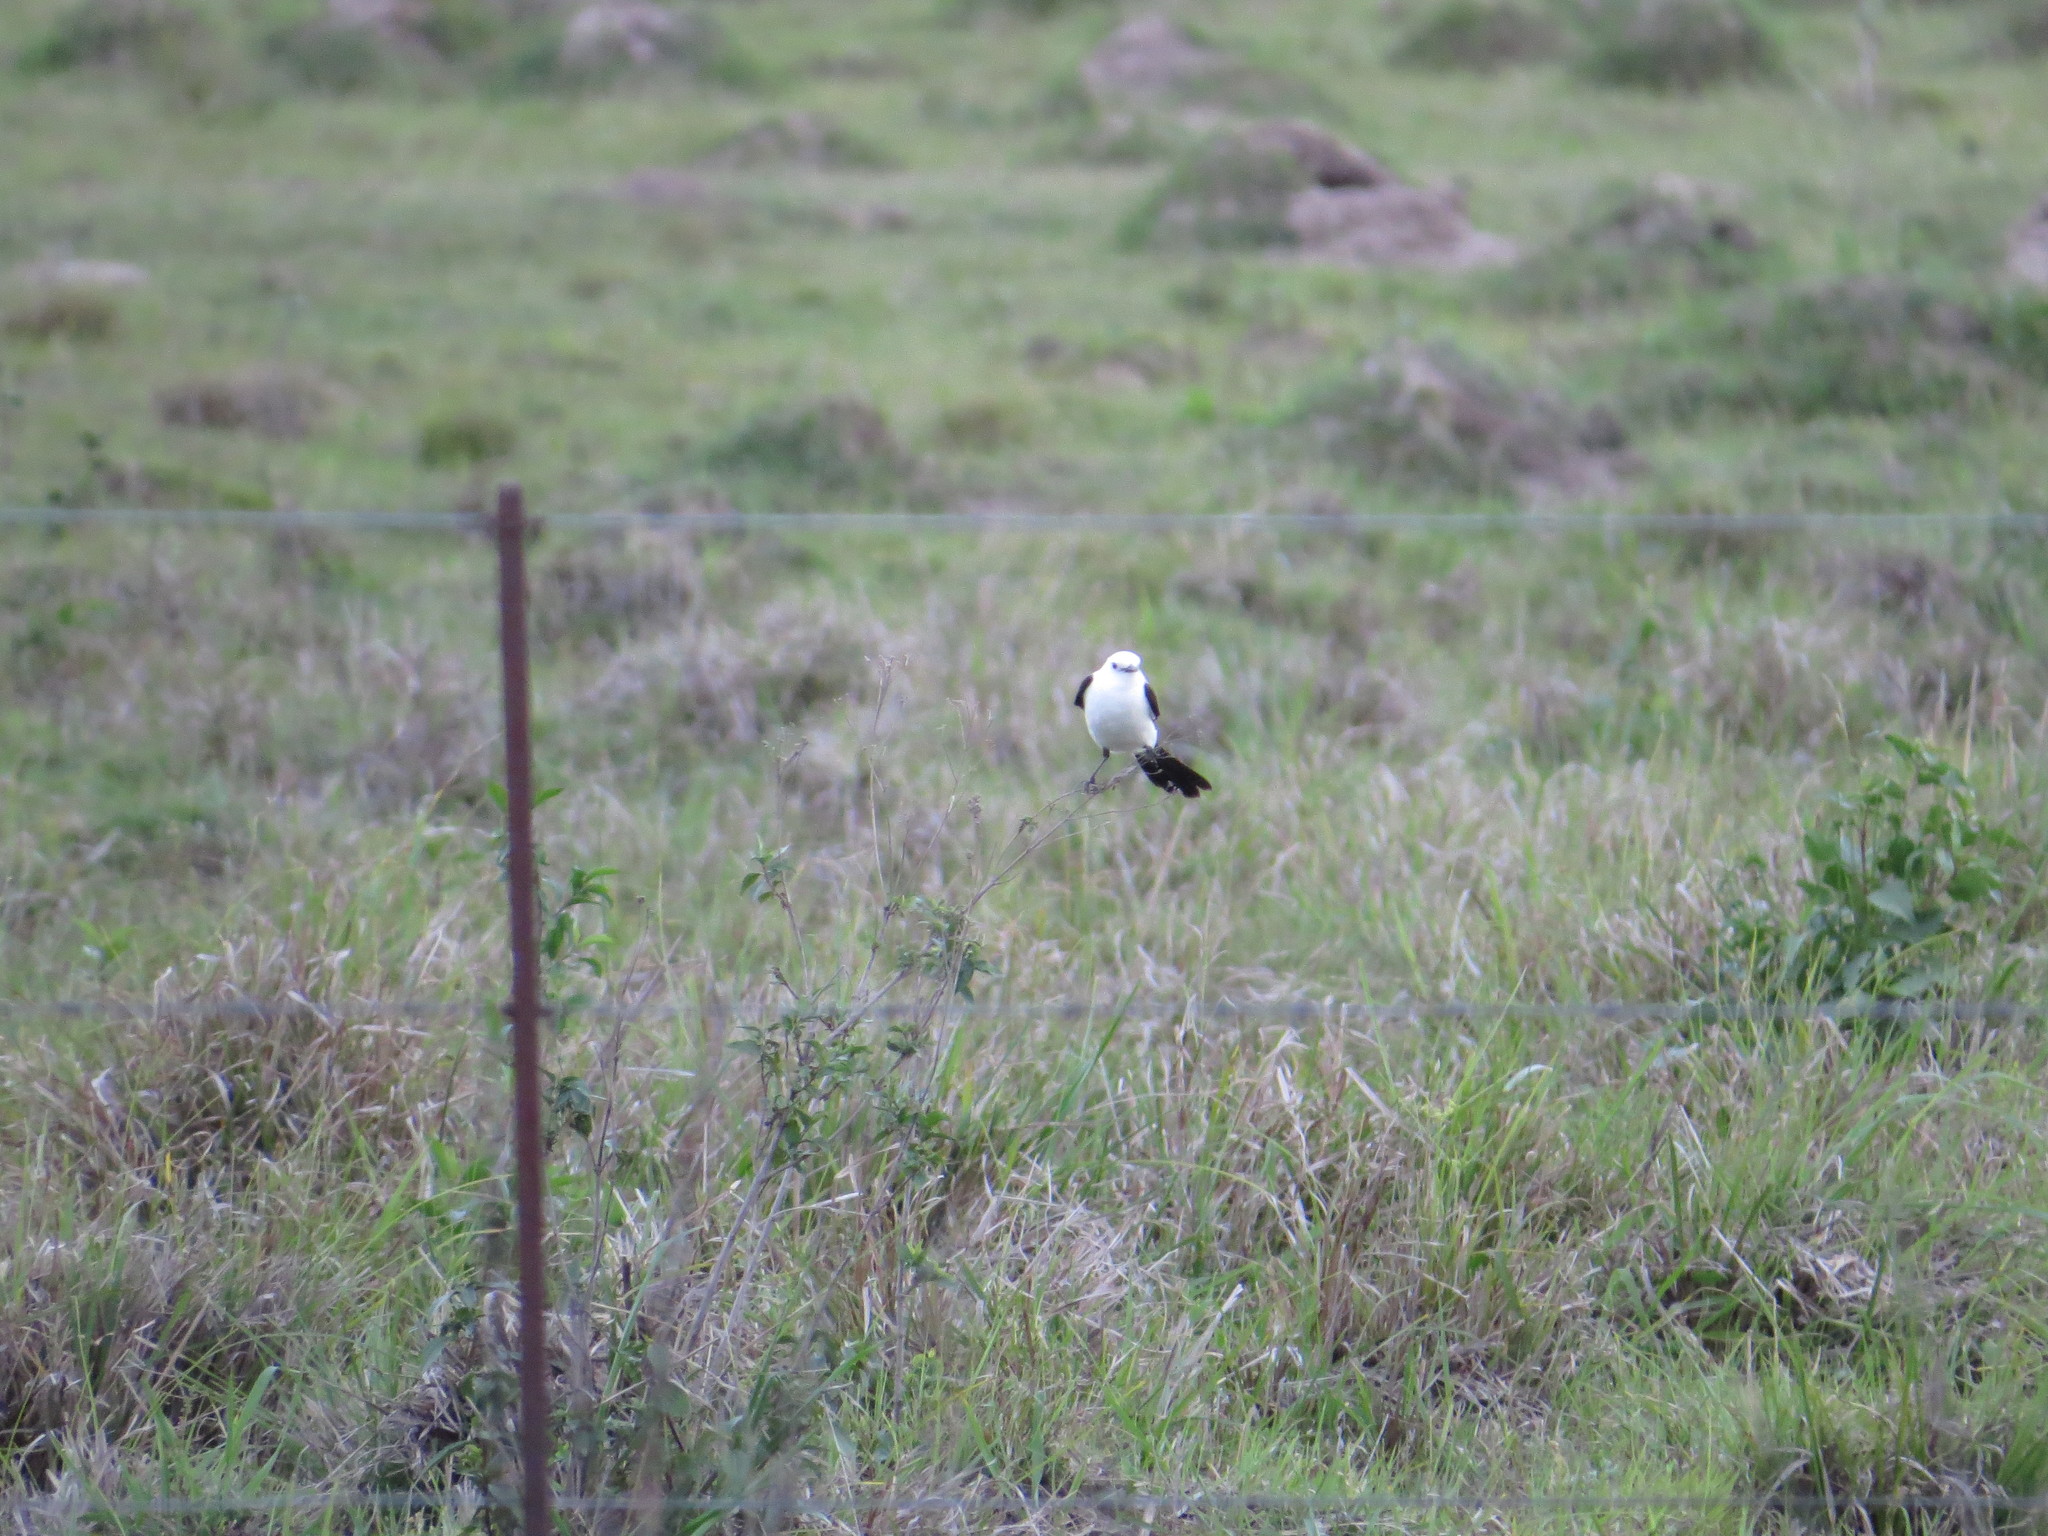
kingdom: Animalia
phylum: Chordata
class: Aves
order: Passeriformes
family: Tyrannidae
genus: Heteroxolmis
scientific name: Heteroxolmis dominicana
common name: Black-and-white monjita
